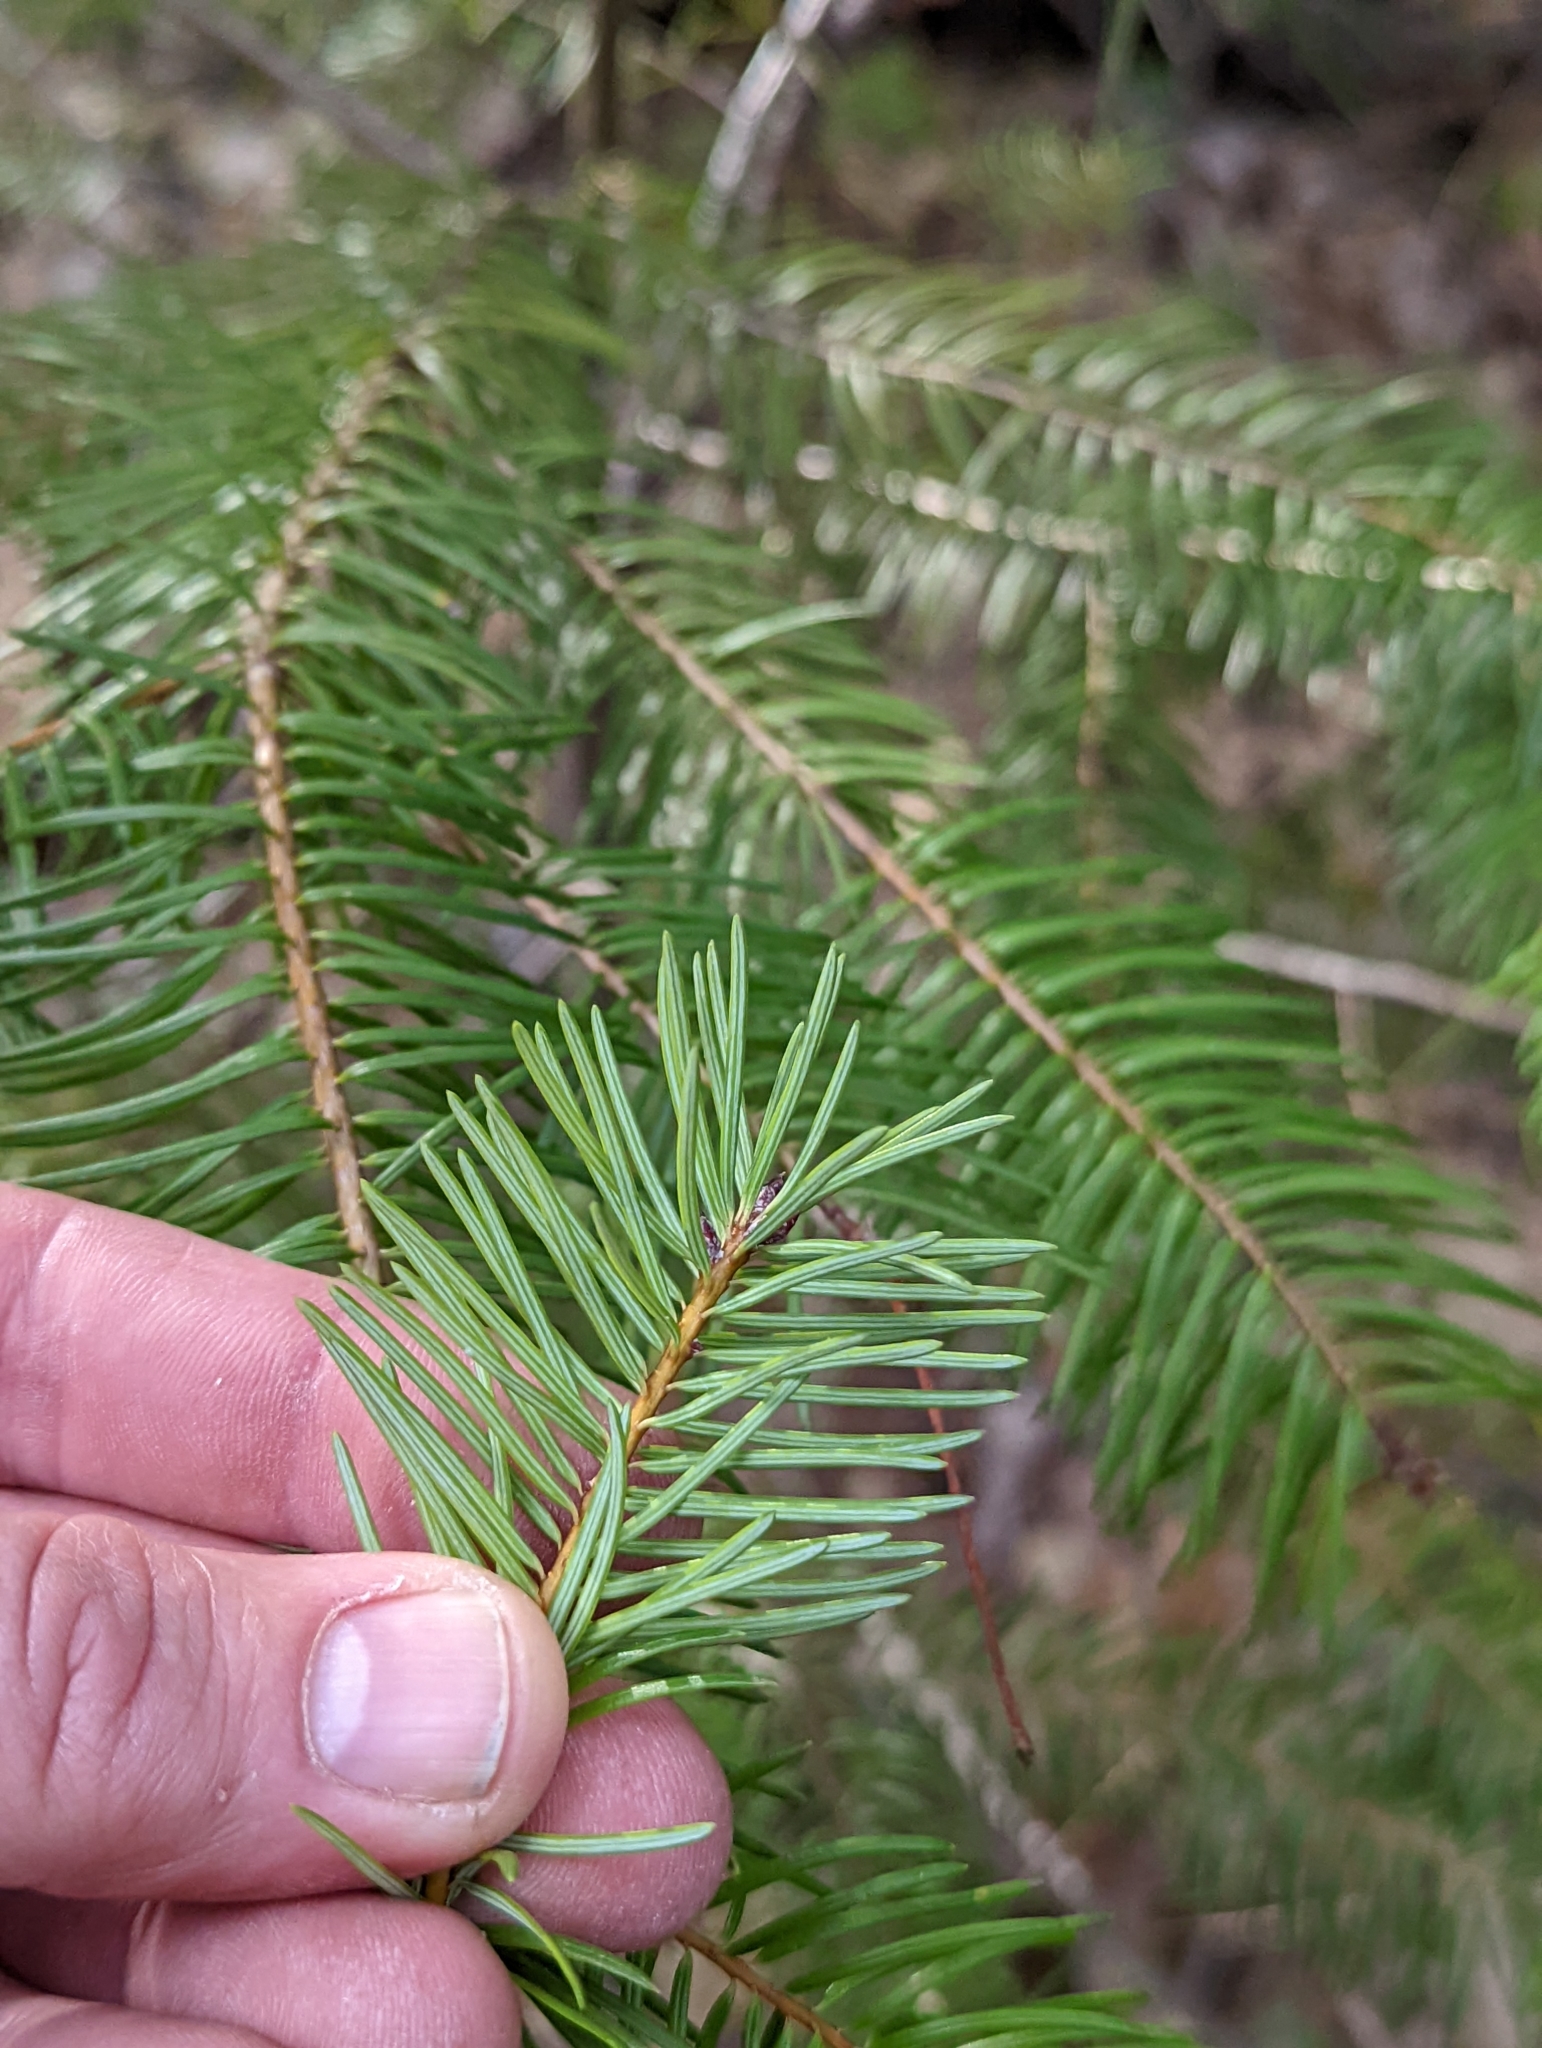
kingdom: Plantae
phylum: Tracheophyta
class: Pinopsida
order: Pinales
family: Pinaceae
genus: Pseudotsuga
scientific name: Pseudotsuga menziesii
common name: Douglas fir
